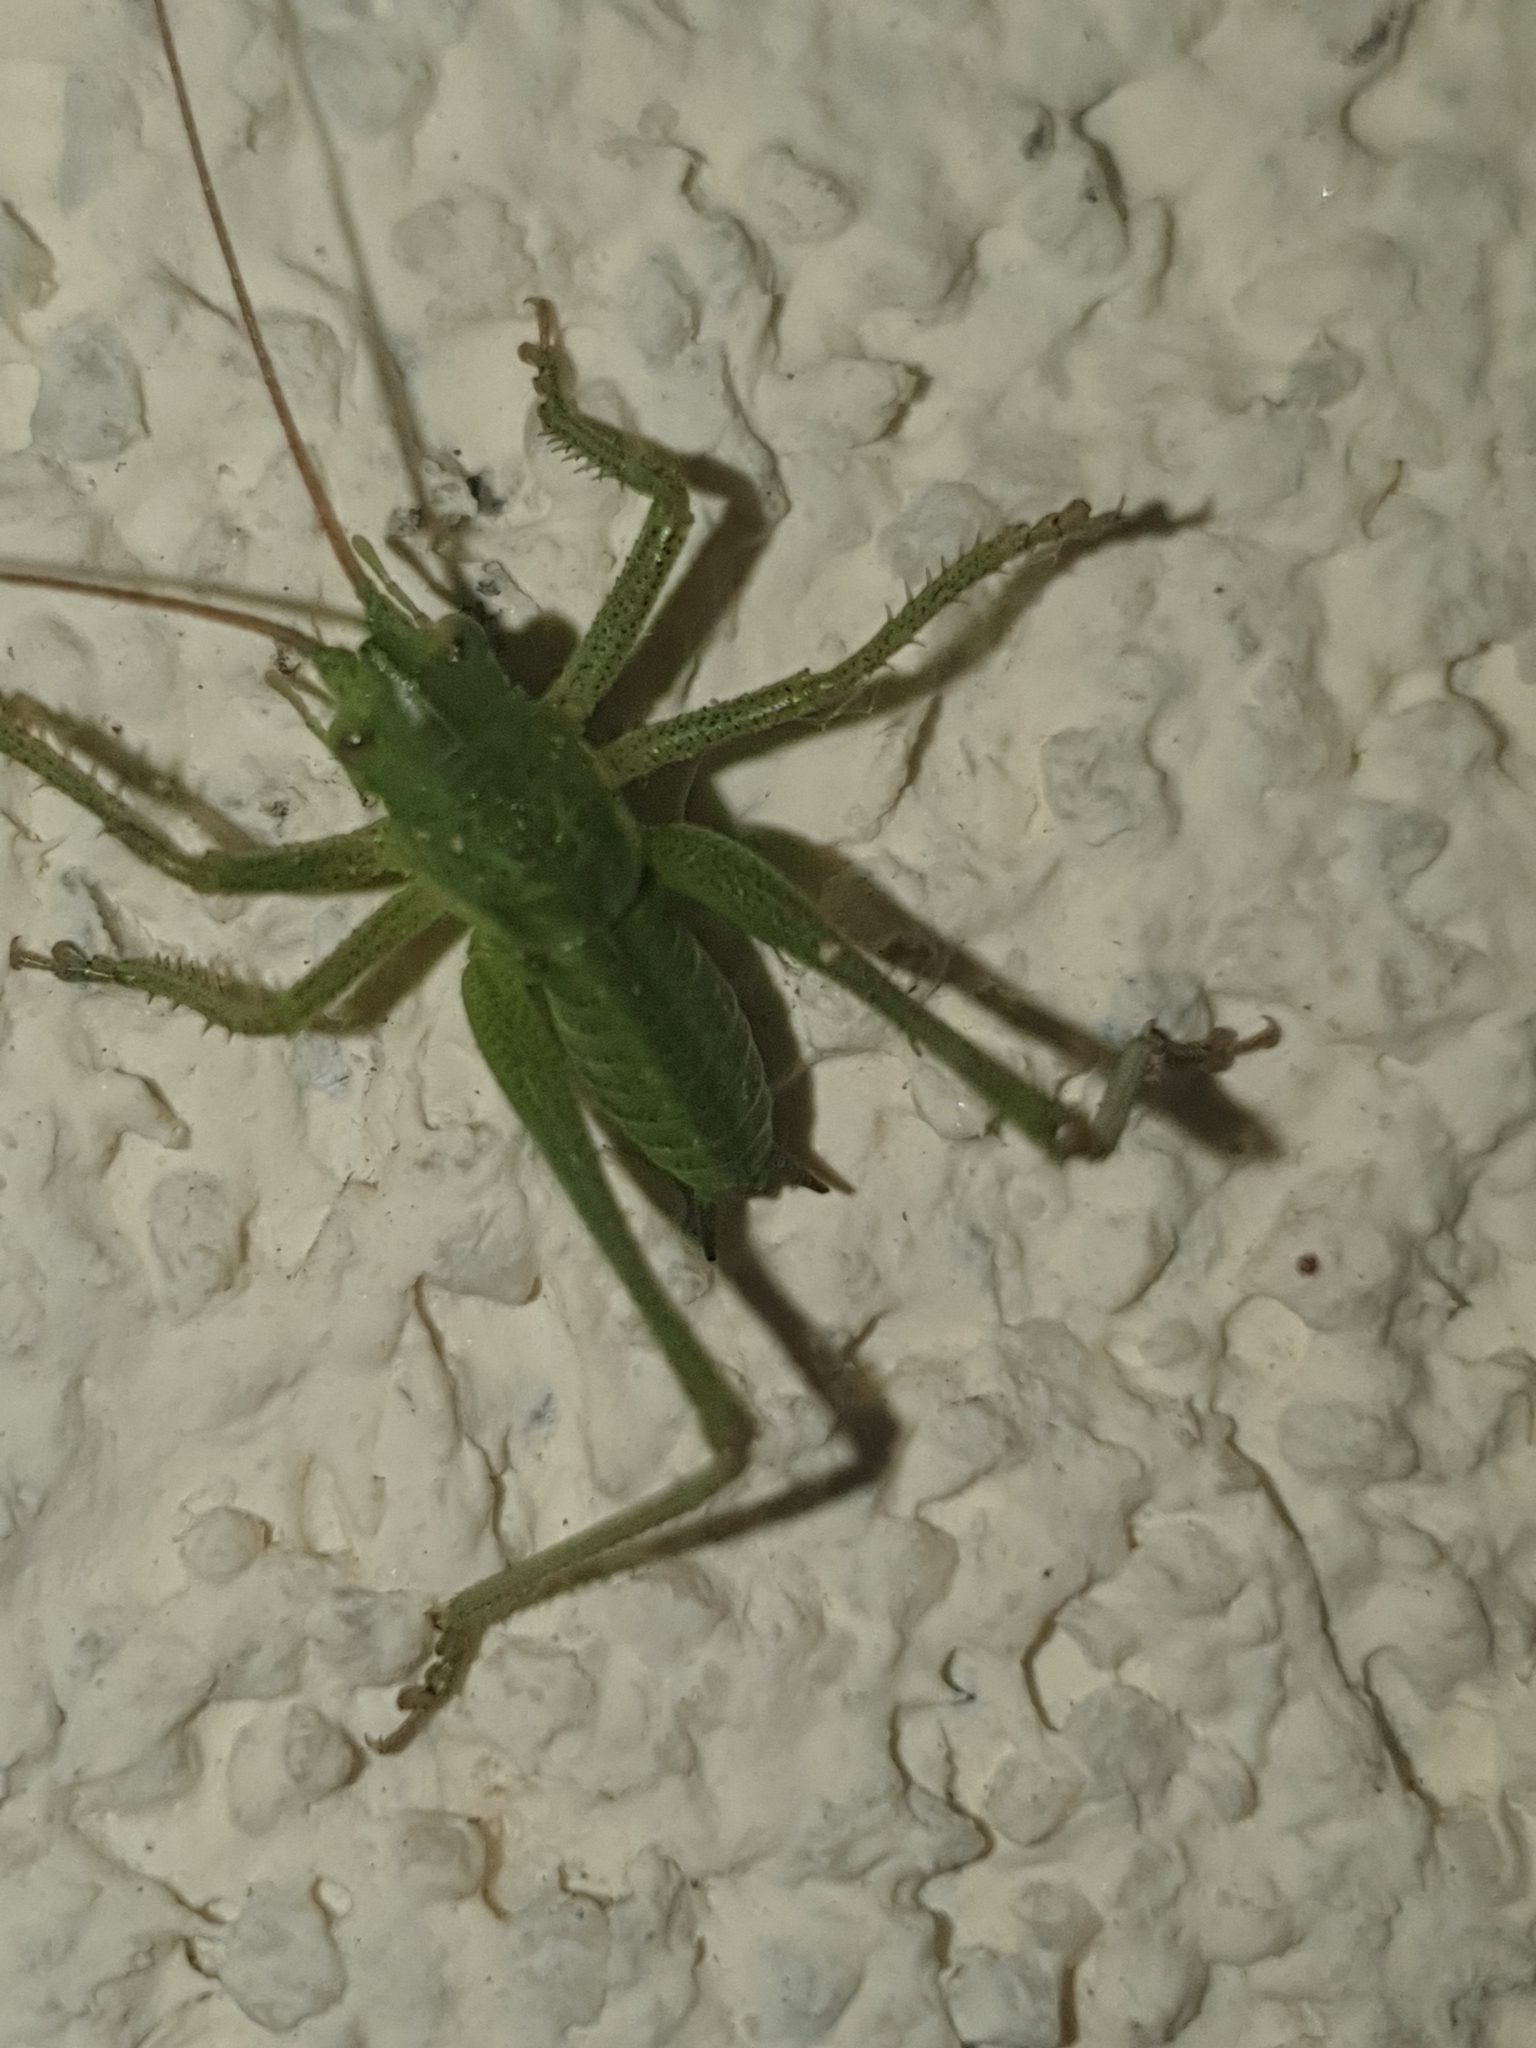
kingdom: Animalia
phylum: Arthropoda
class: Insecta
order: Orthoptera
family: Tettigoniidae
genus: Tettigonia
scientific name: Tettigonia viridissima
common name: Great green bush-cricket
